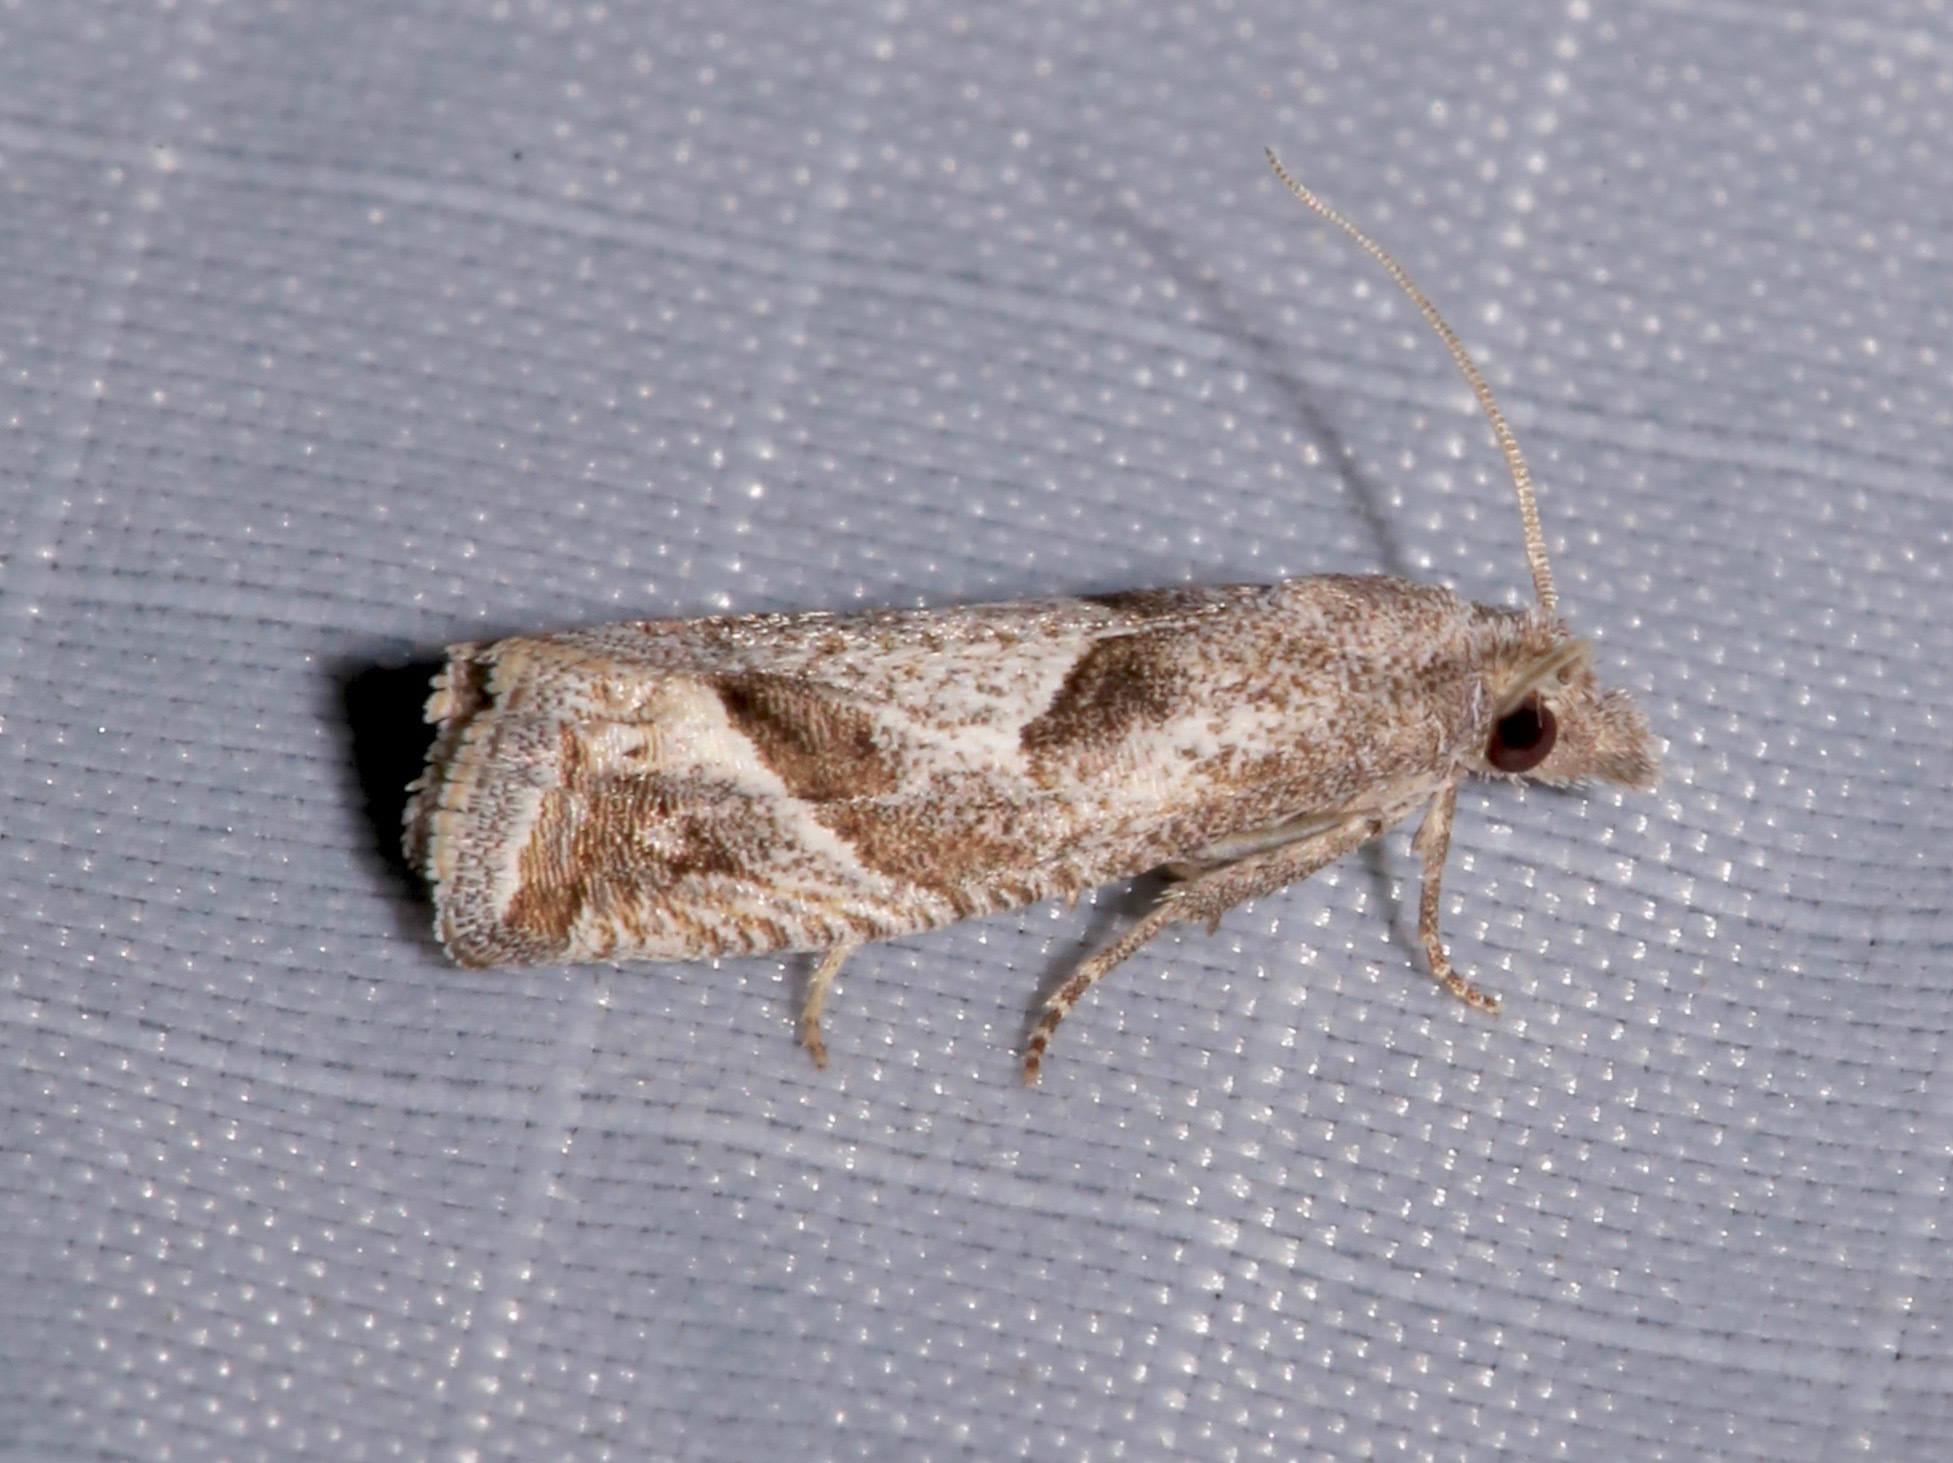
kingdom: Animalia
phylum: Arthropoda
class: Insecta
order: Lepidoptera
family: Tortricidae
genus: Pelochrista
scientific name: Pelochrista corosana
